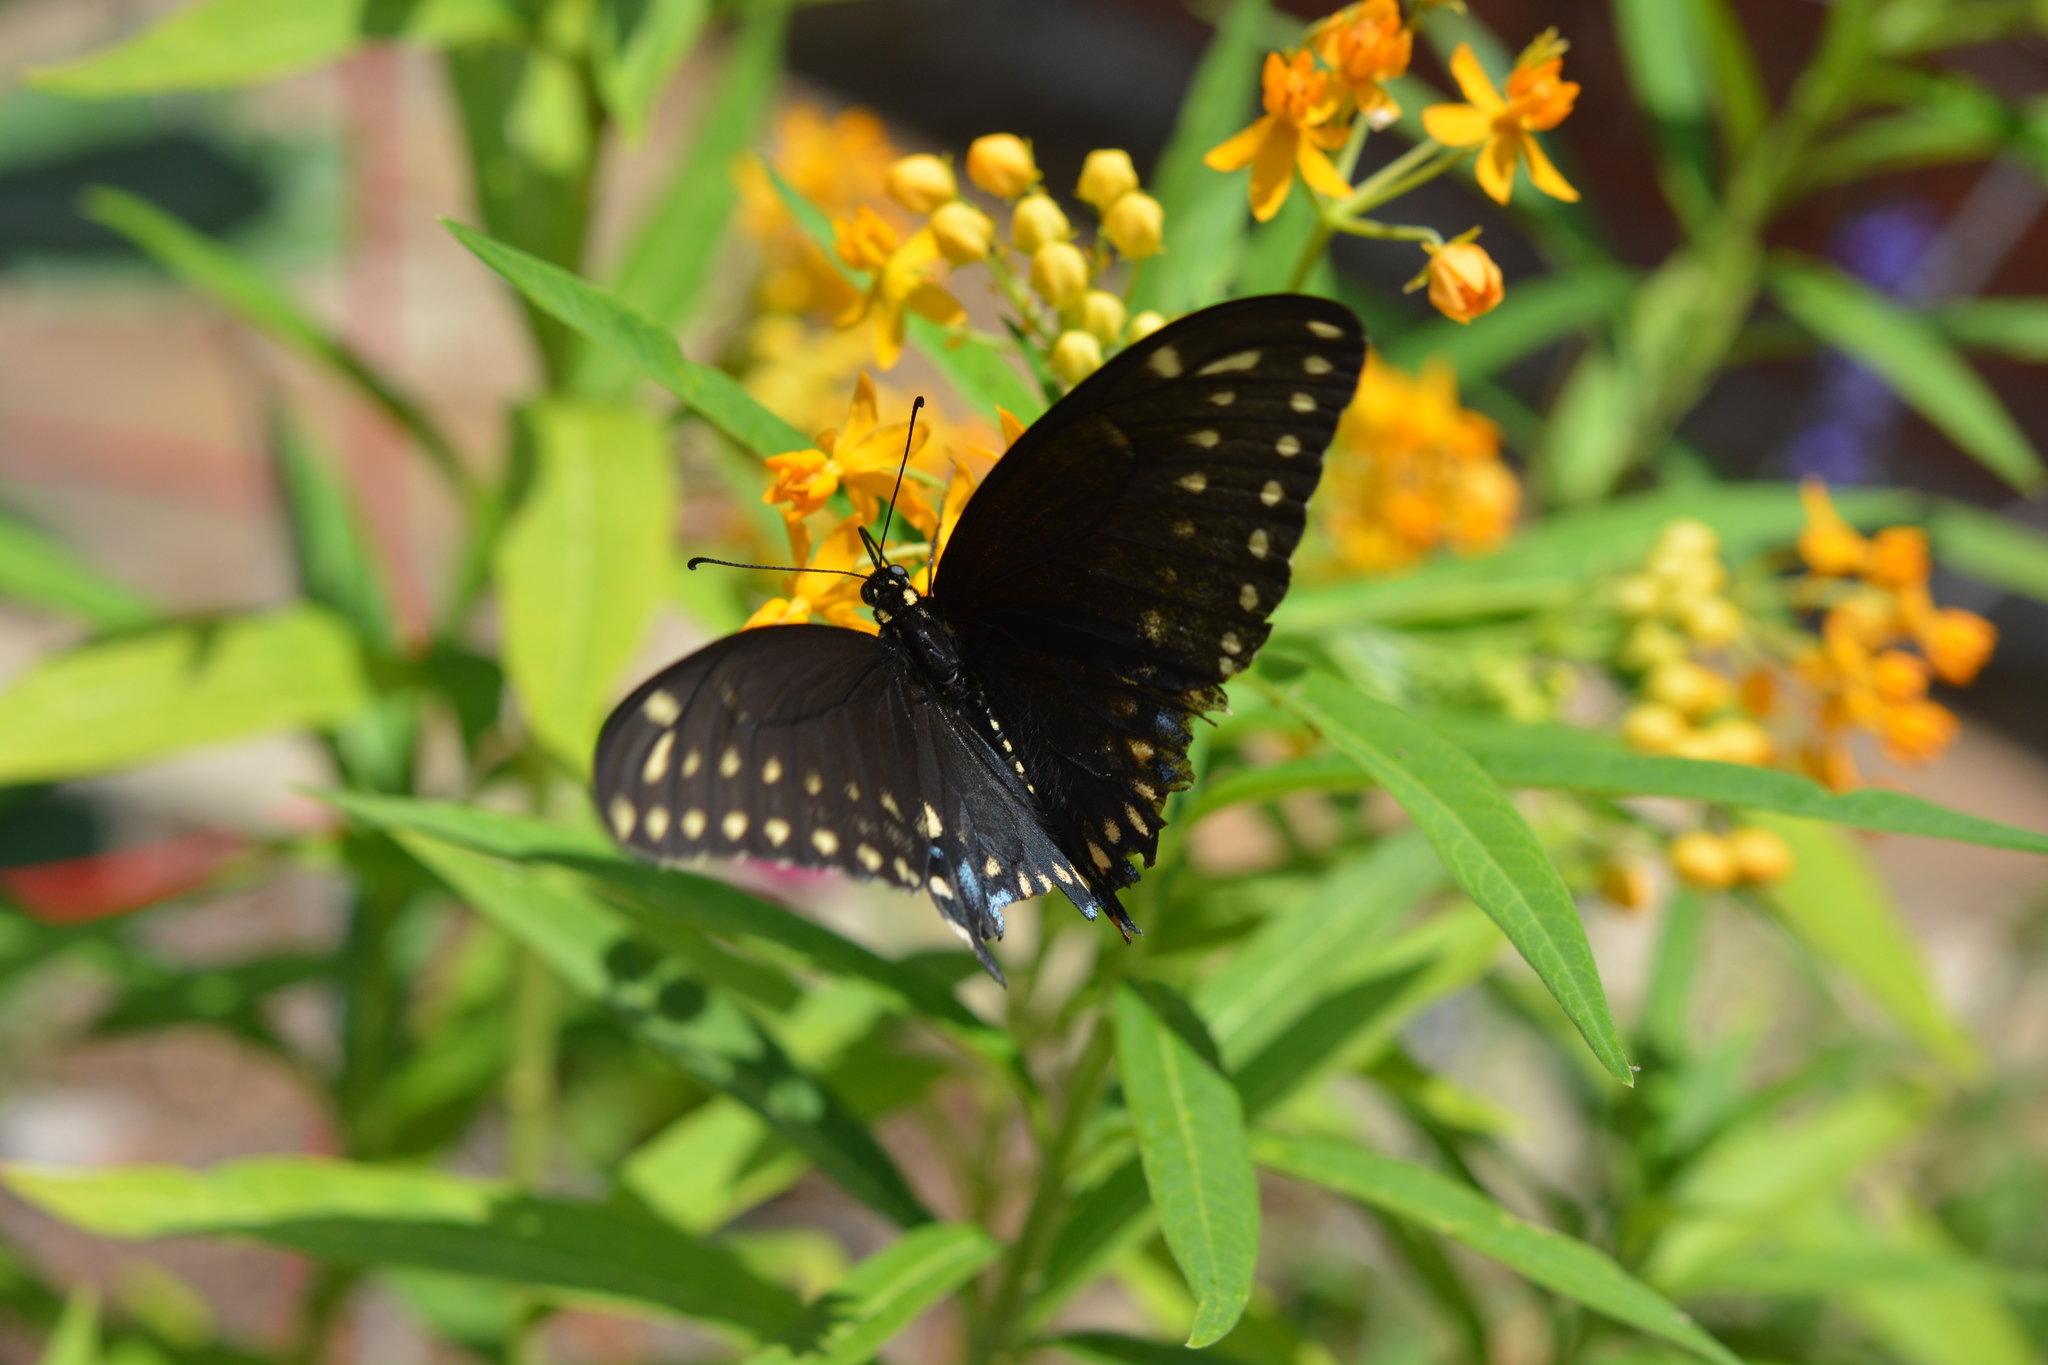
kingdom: Animalia
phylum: Arthropoda
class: Insecta
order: Lepidoptera
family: Papilionidae
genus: Papilio
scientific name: Papilio polyxenes
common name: Black swallowtail
